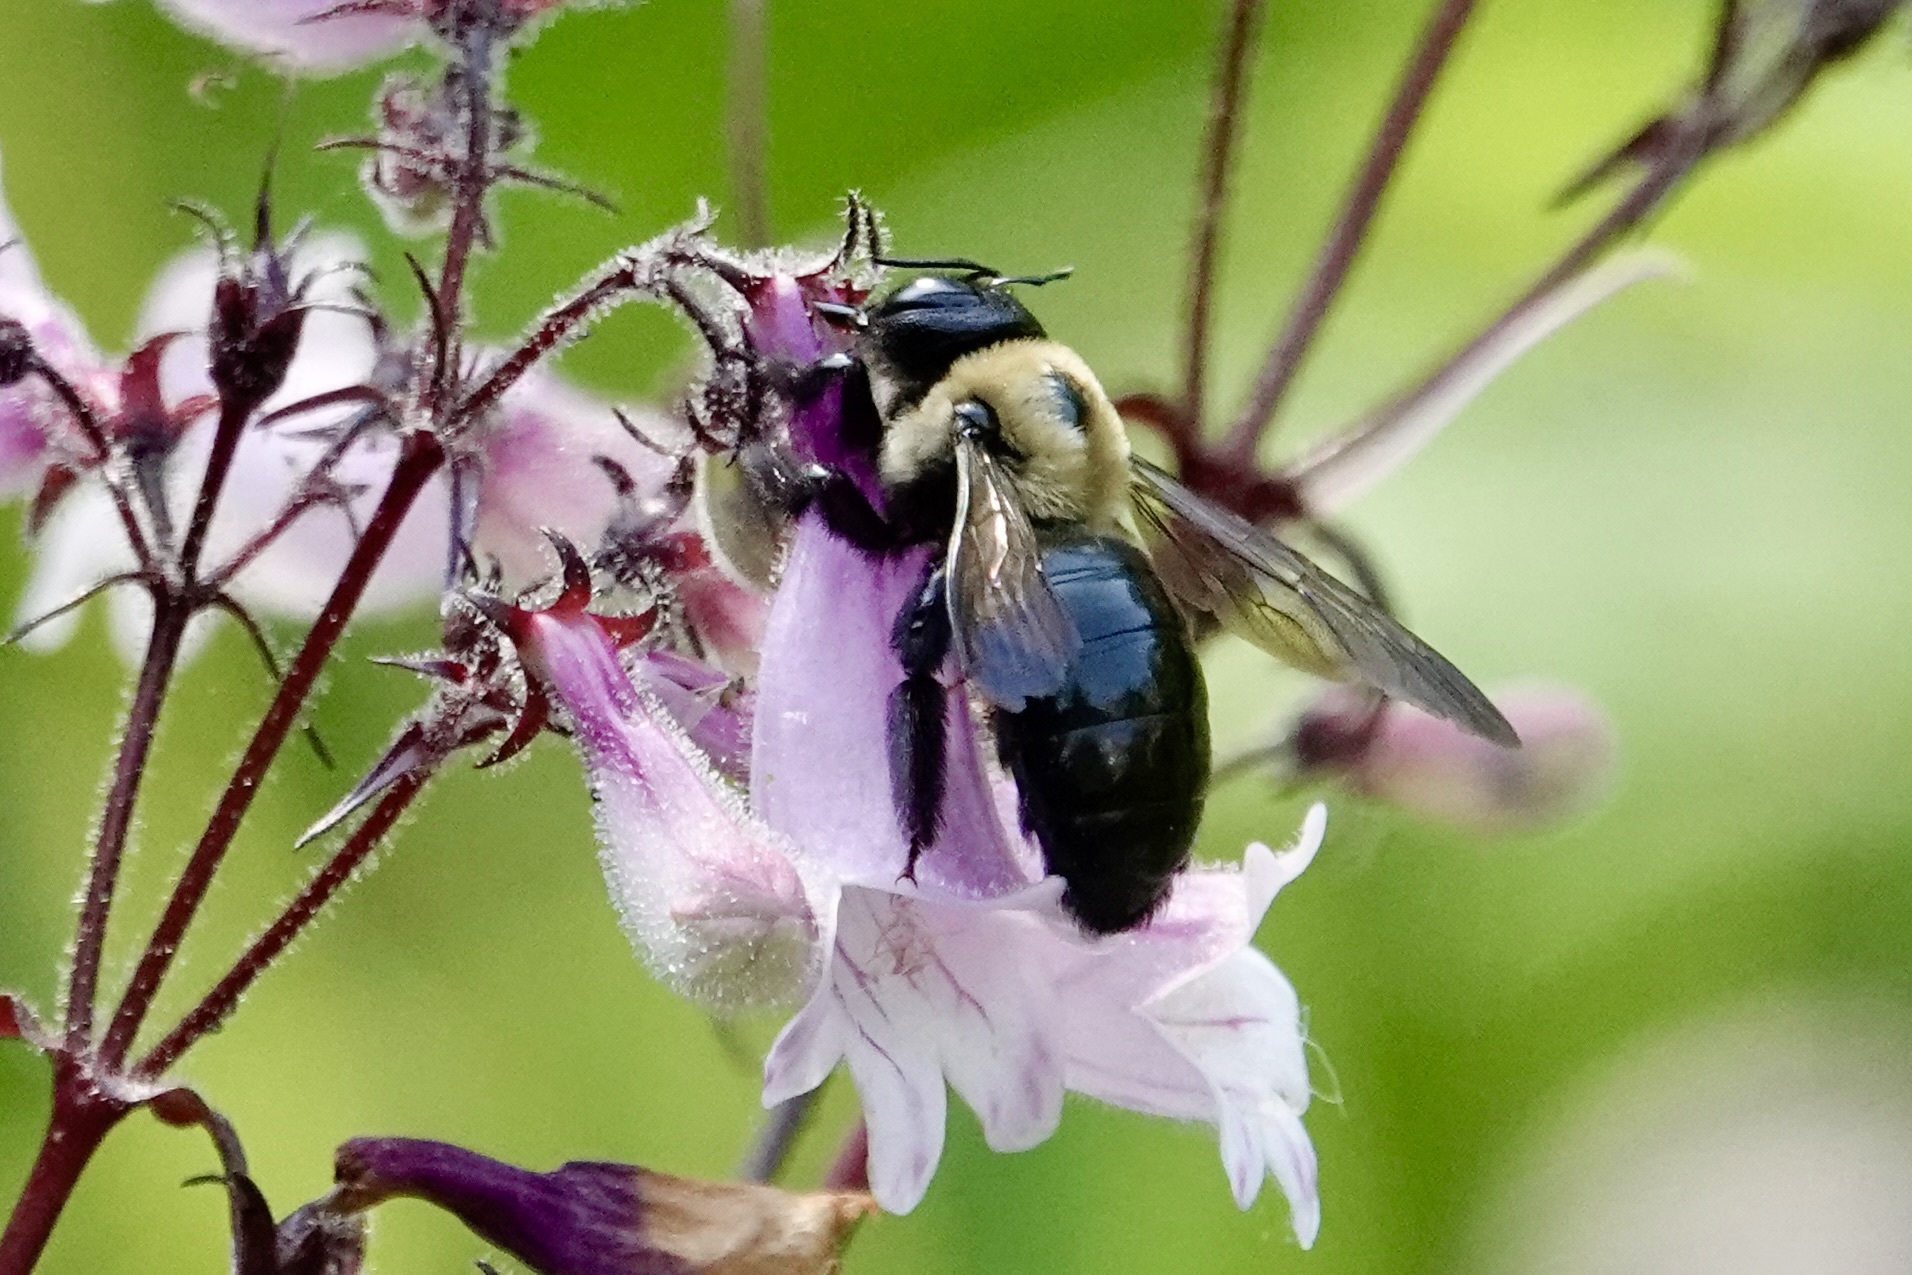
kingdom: Animalia
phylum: Arthropoda
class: Insecta
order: Hymenoptera
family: Apidae
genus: Xylocopa
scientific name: Xylocopa virginica
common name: Carpenter bee
